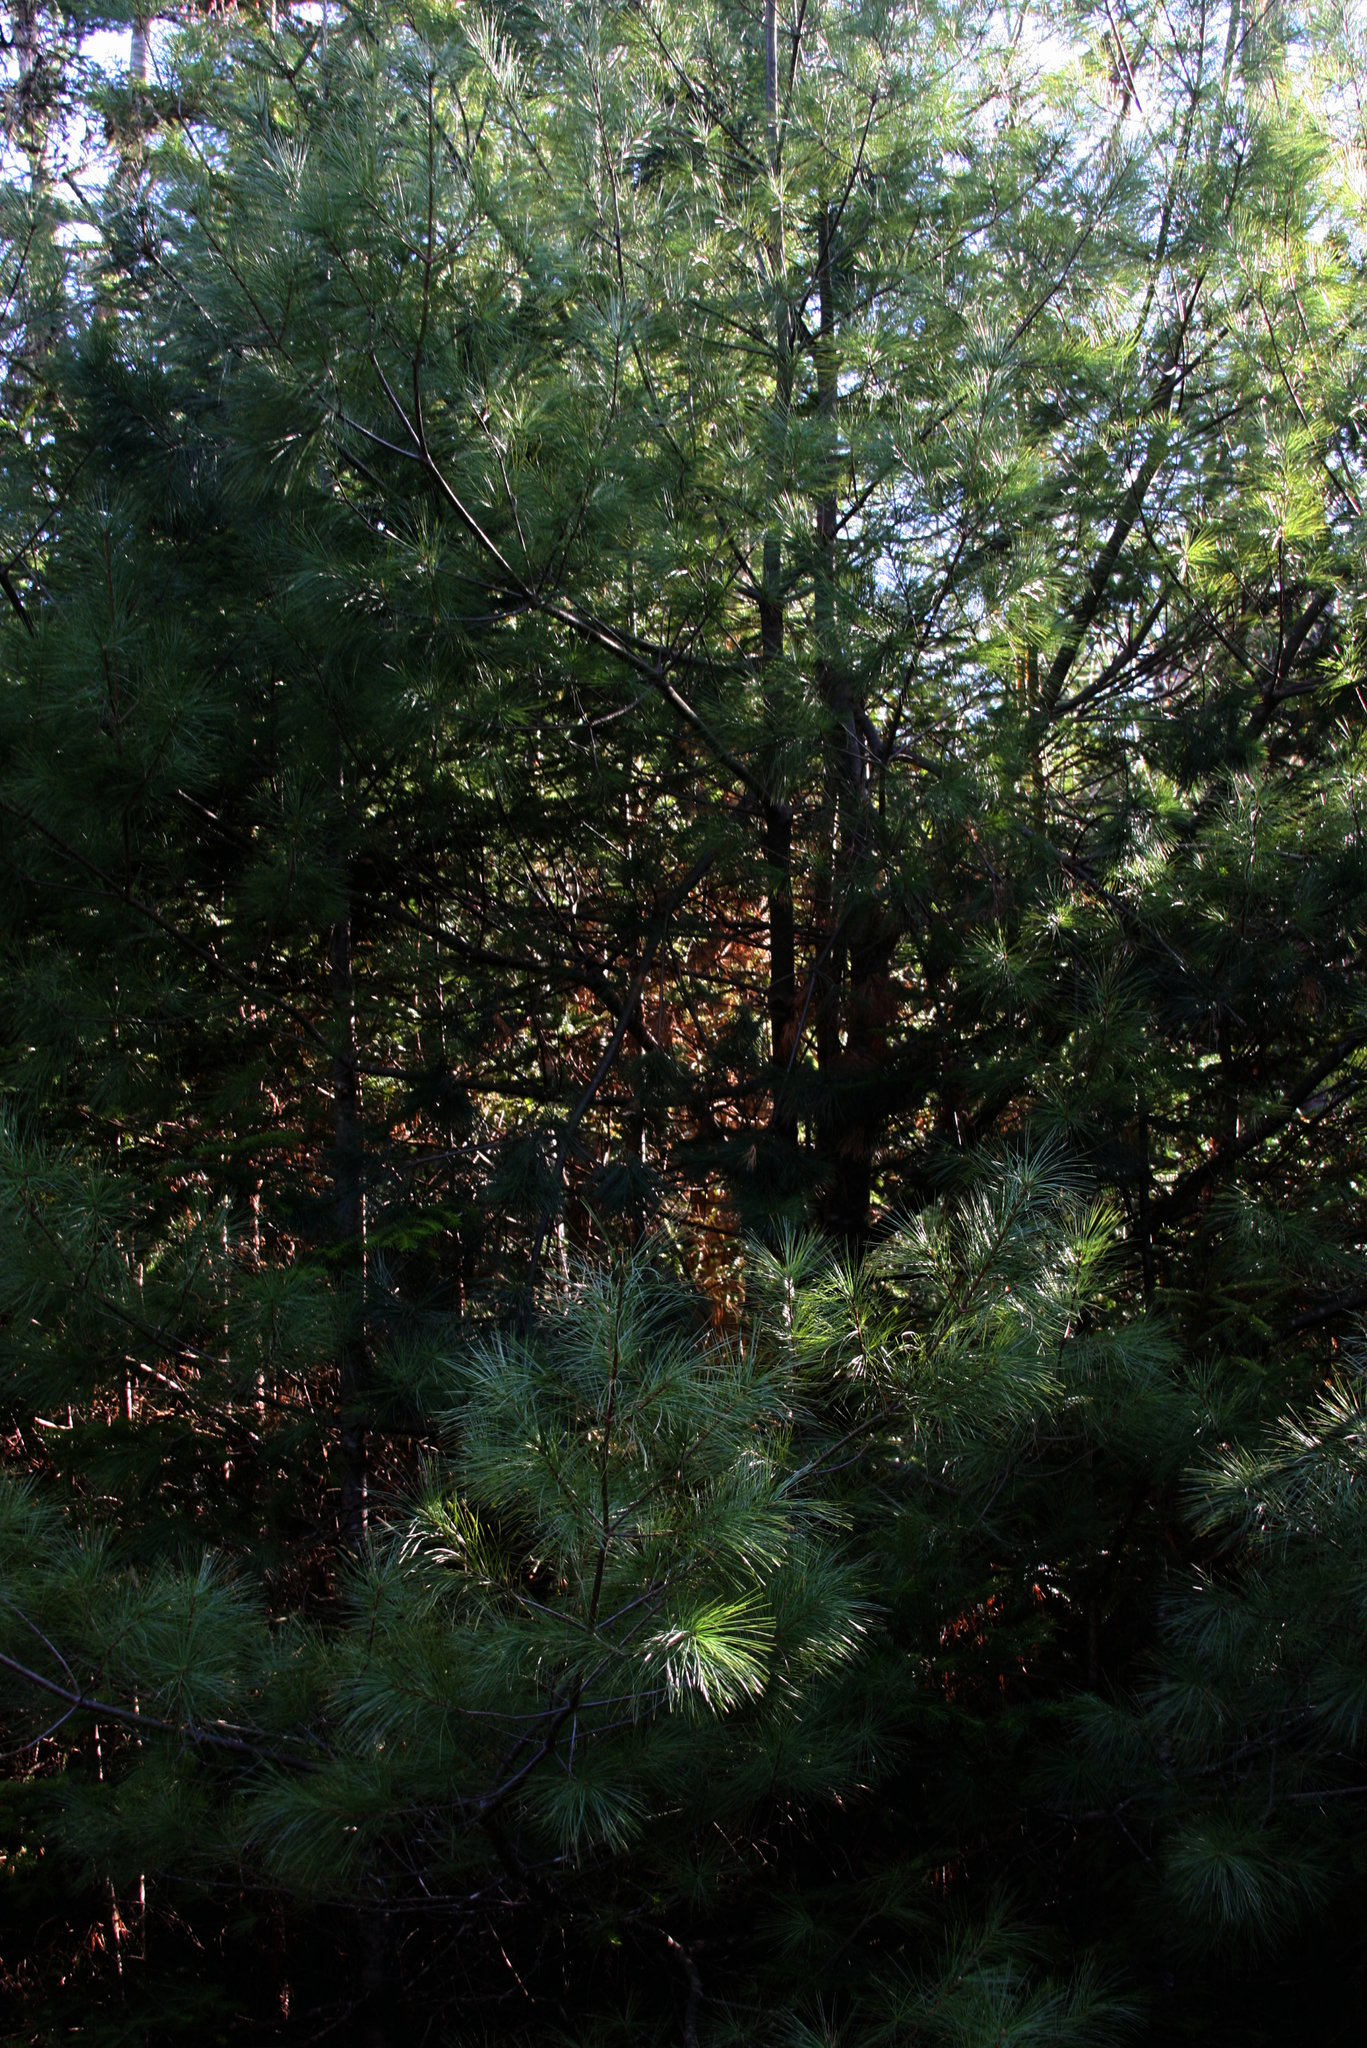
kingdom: Plantae
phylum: Tracheophyta
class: Pinopsida
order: Pinales
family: Pinaceae
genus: Pinus
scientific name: Pinus strobus
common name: Weymouth pine
